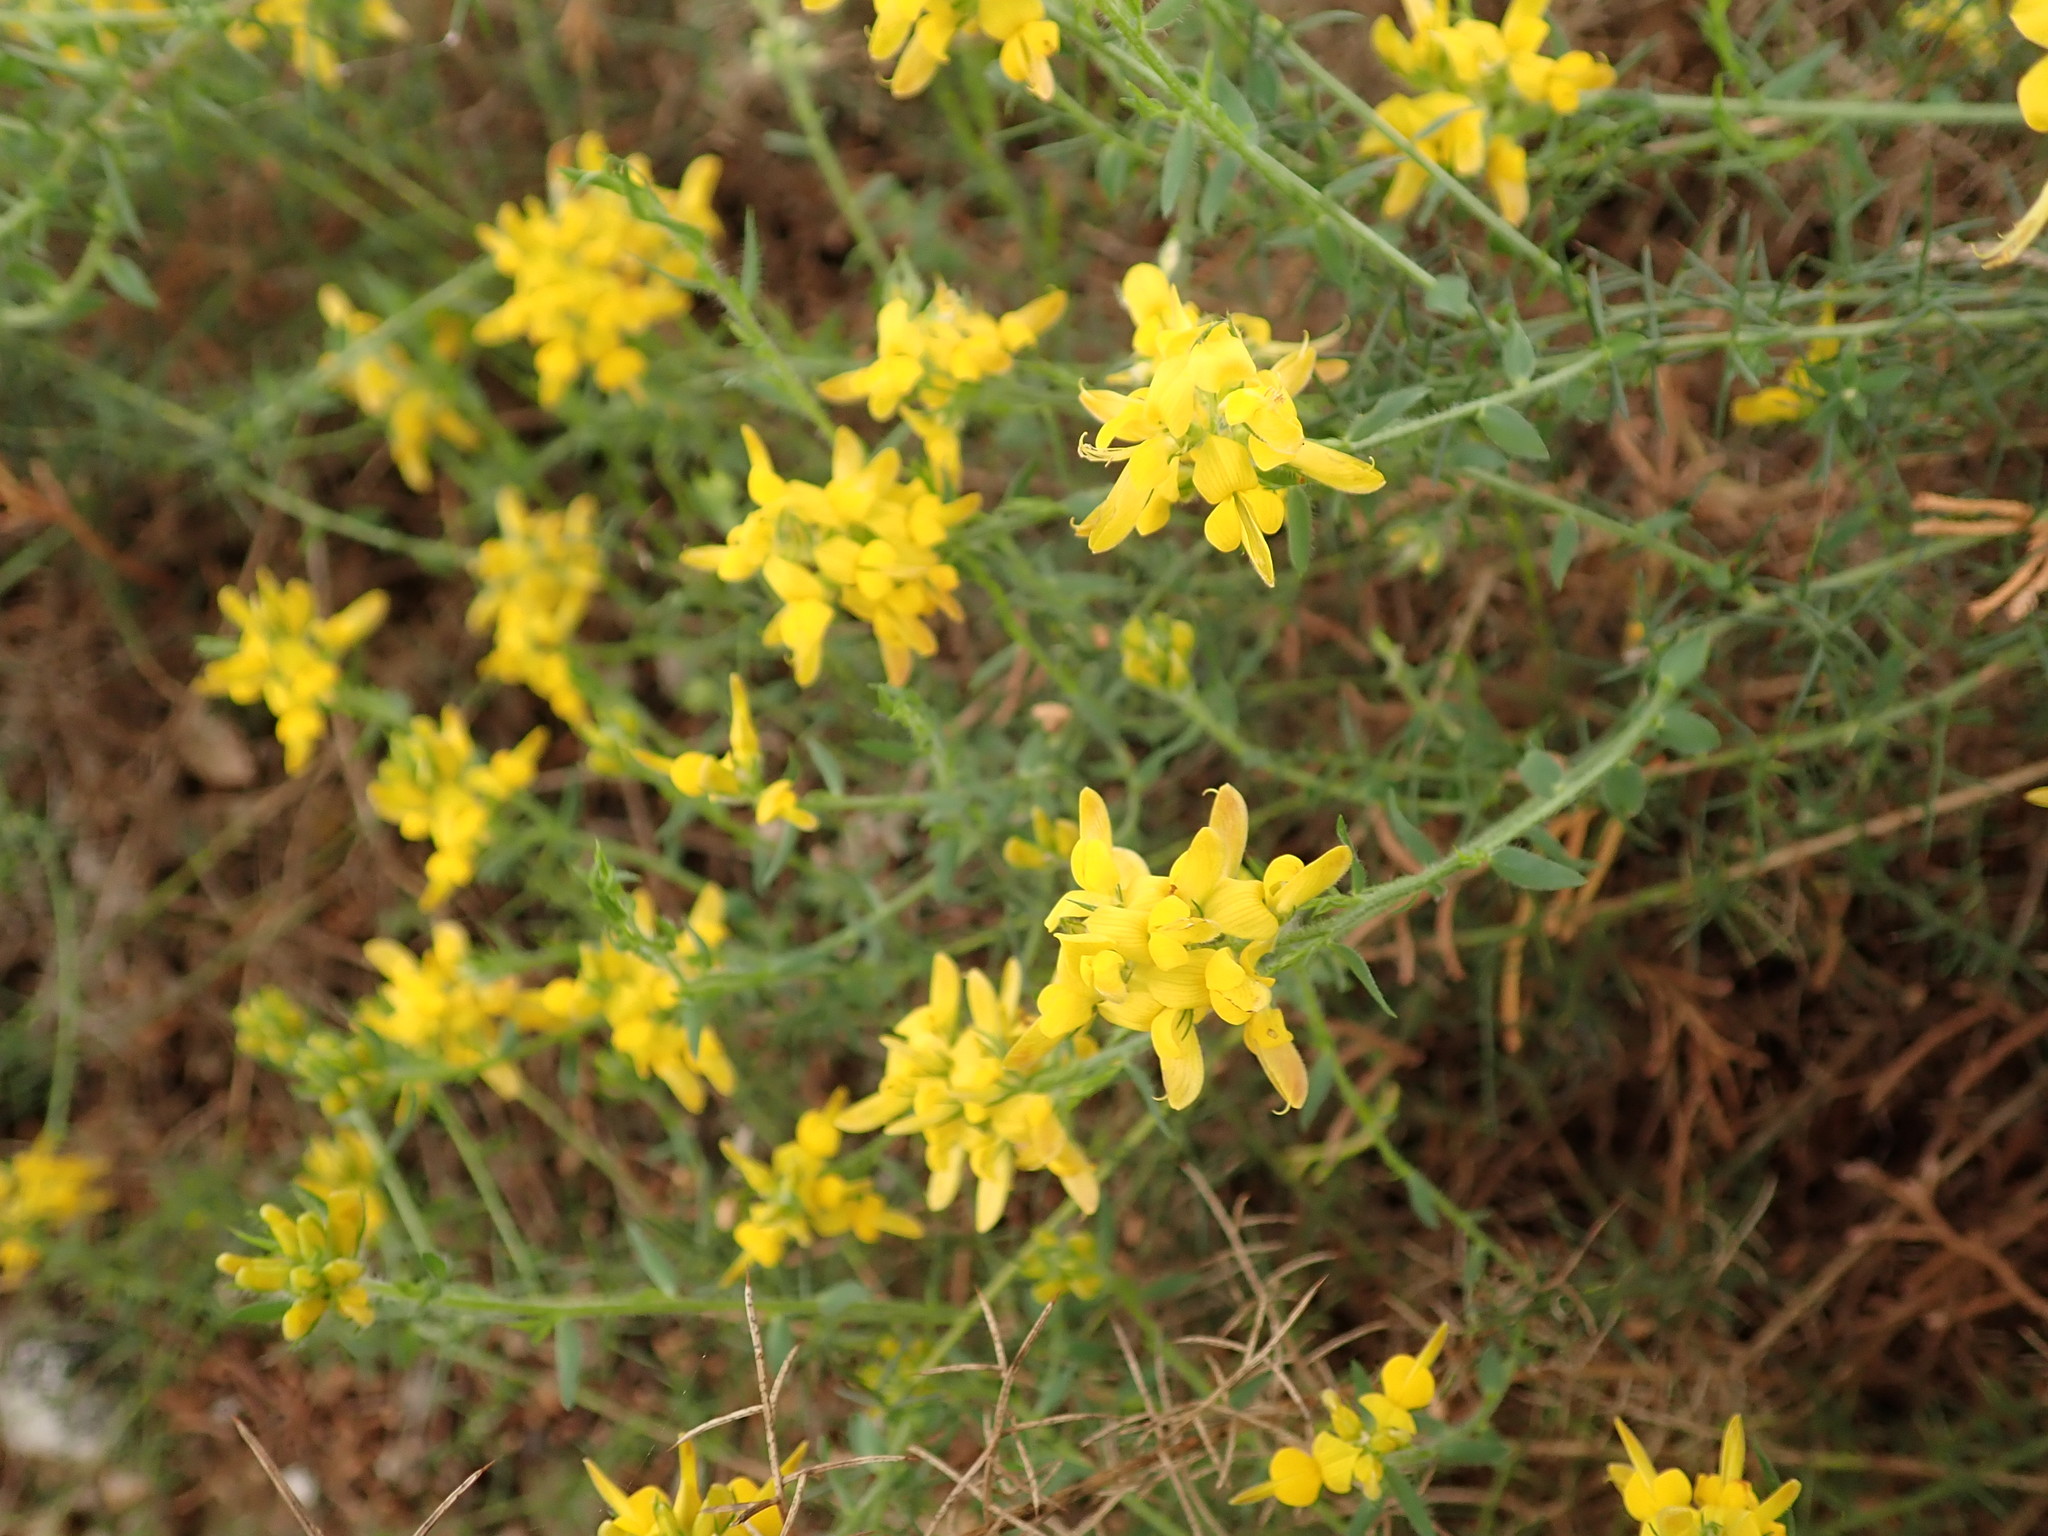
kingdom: Plantae
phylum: Tracheophyta
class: Magnoliopsida
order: Fabales
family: Fabaceae
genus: Genista
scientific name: Genista tournefortii
